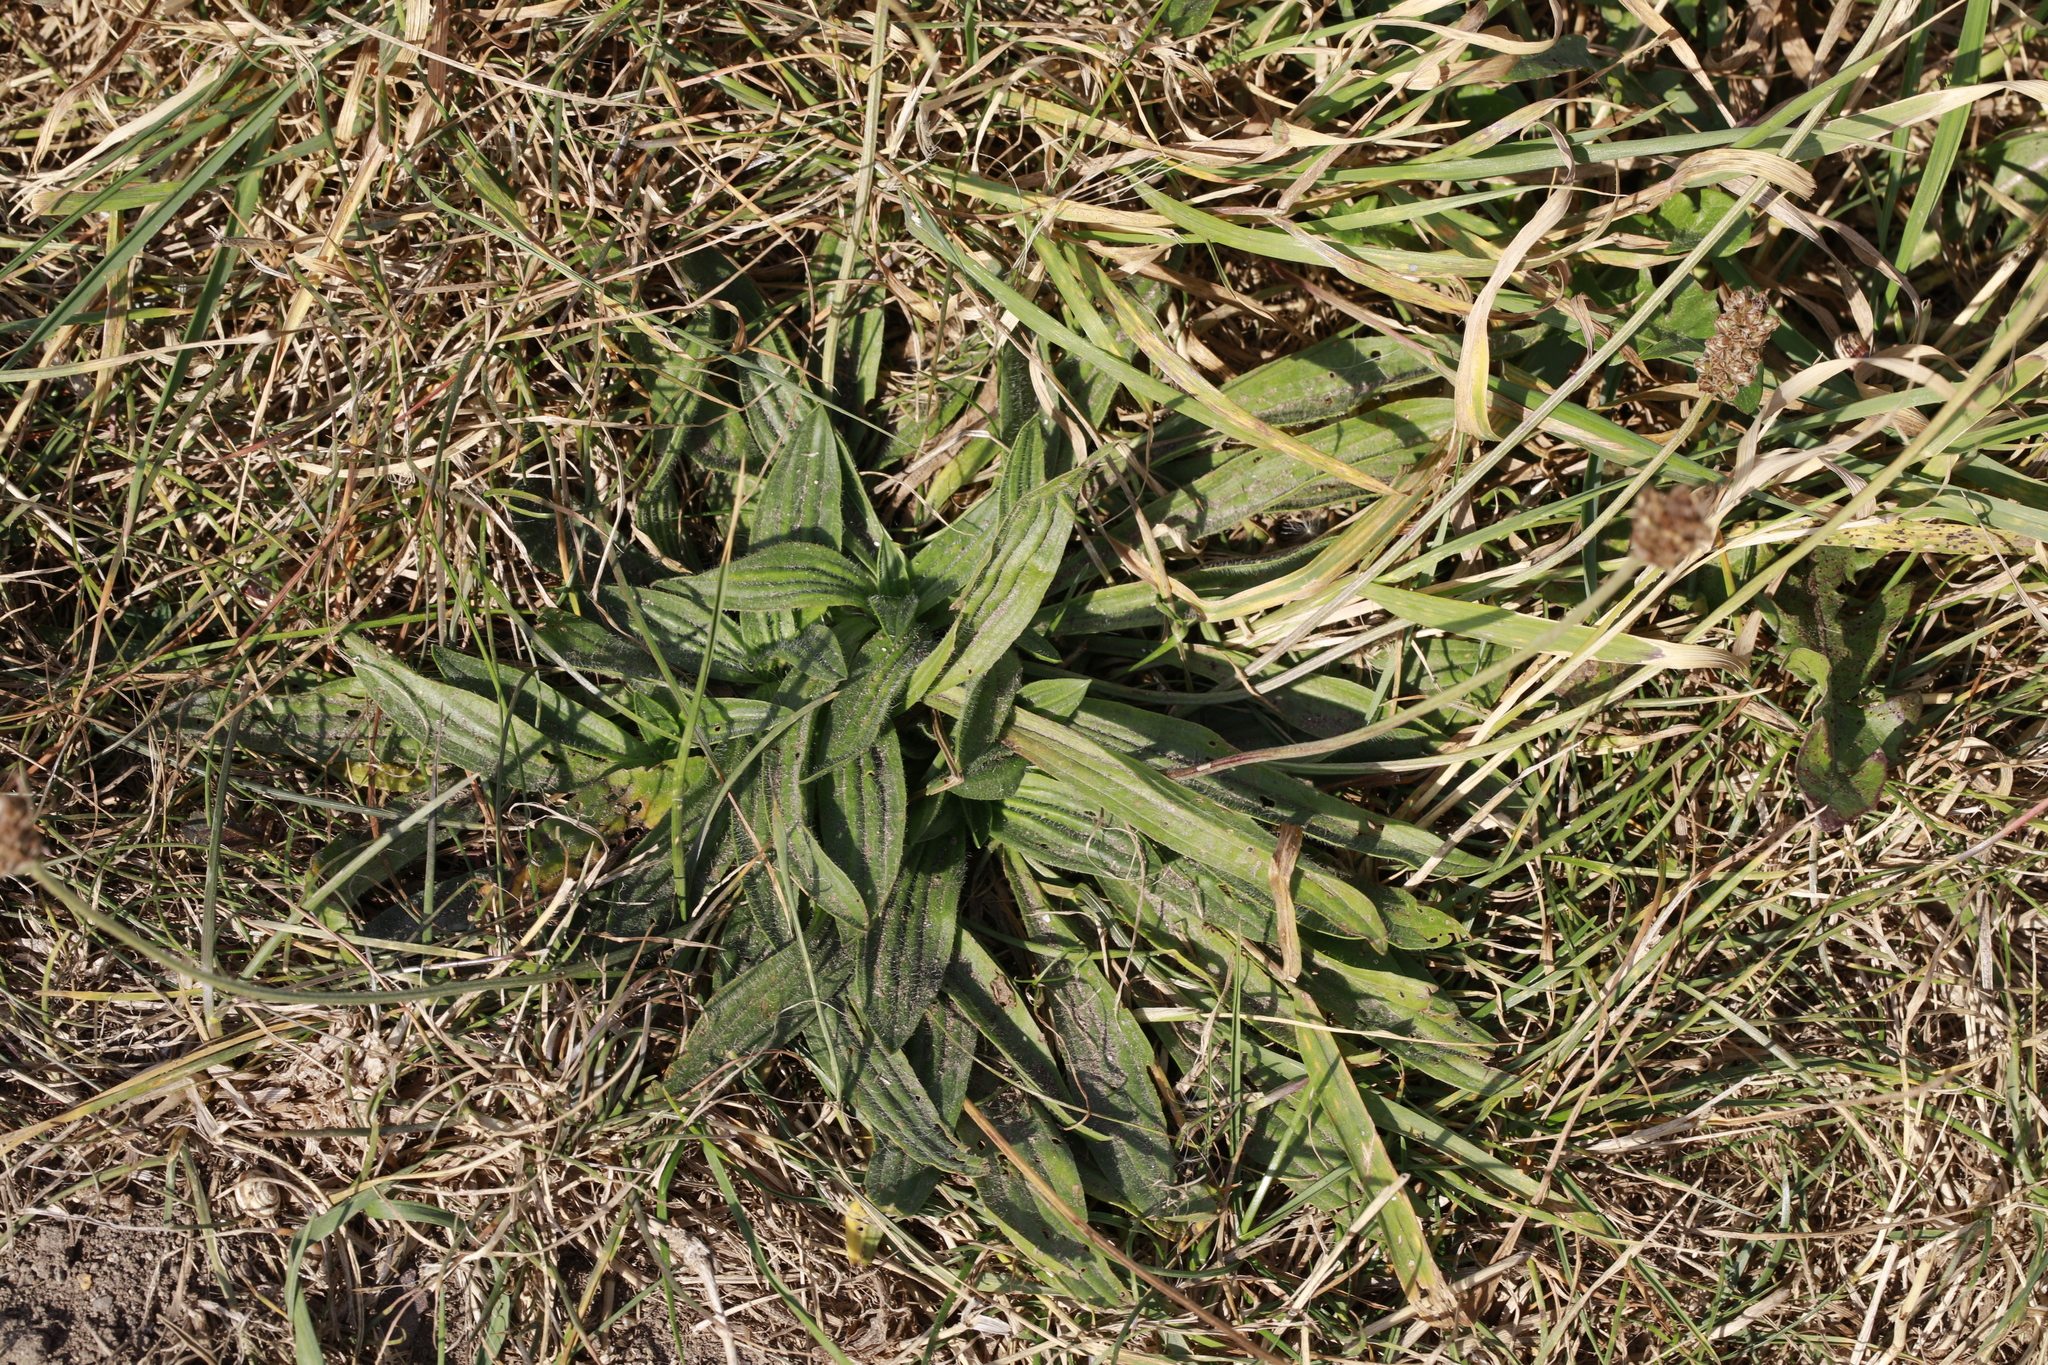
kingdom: Plantae
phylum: Tracheophyta
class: Magnoliopsida
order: Lamiales
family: Plantaginaceae
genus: Plantago
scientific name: Plantago lanceolata
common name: Ribwort plantain
